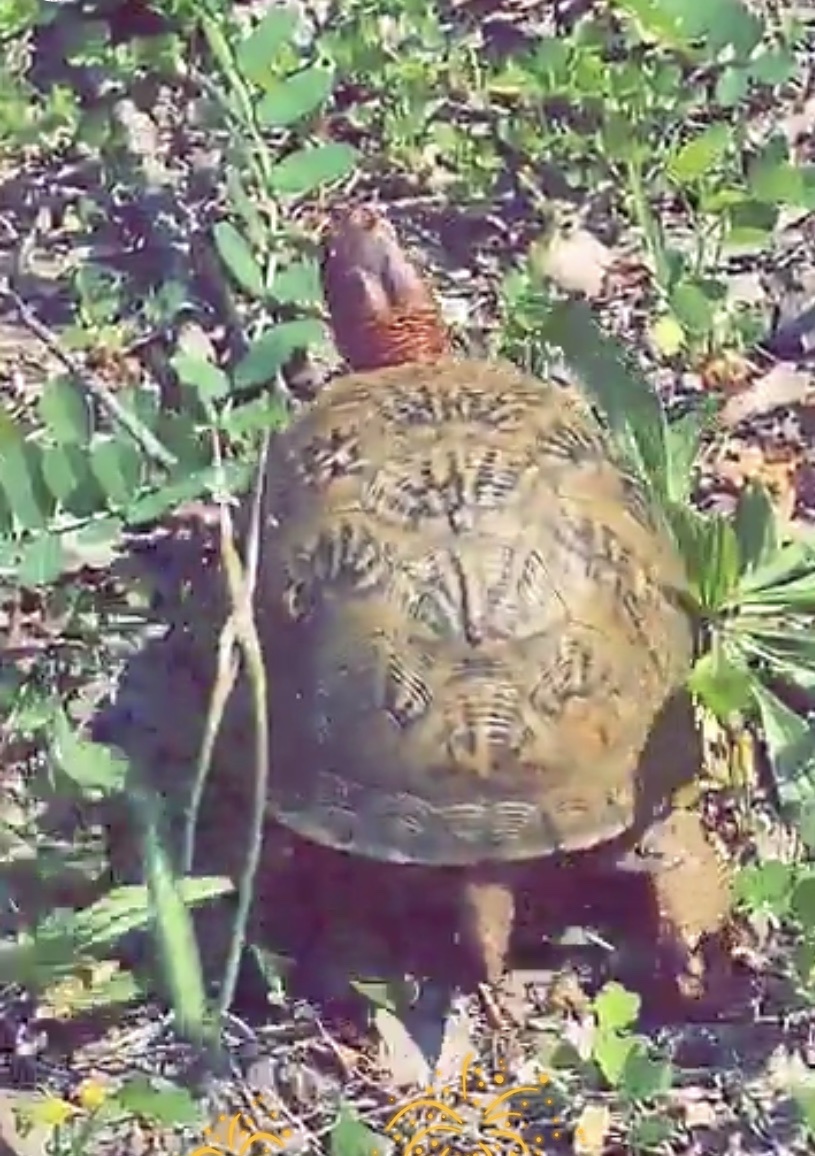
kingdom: Animalia
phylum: Chordata
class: Testudines
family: Emydidae
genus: Terrapene
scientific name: Terrapene carolina
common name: Common box turtle
